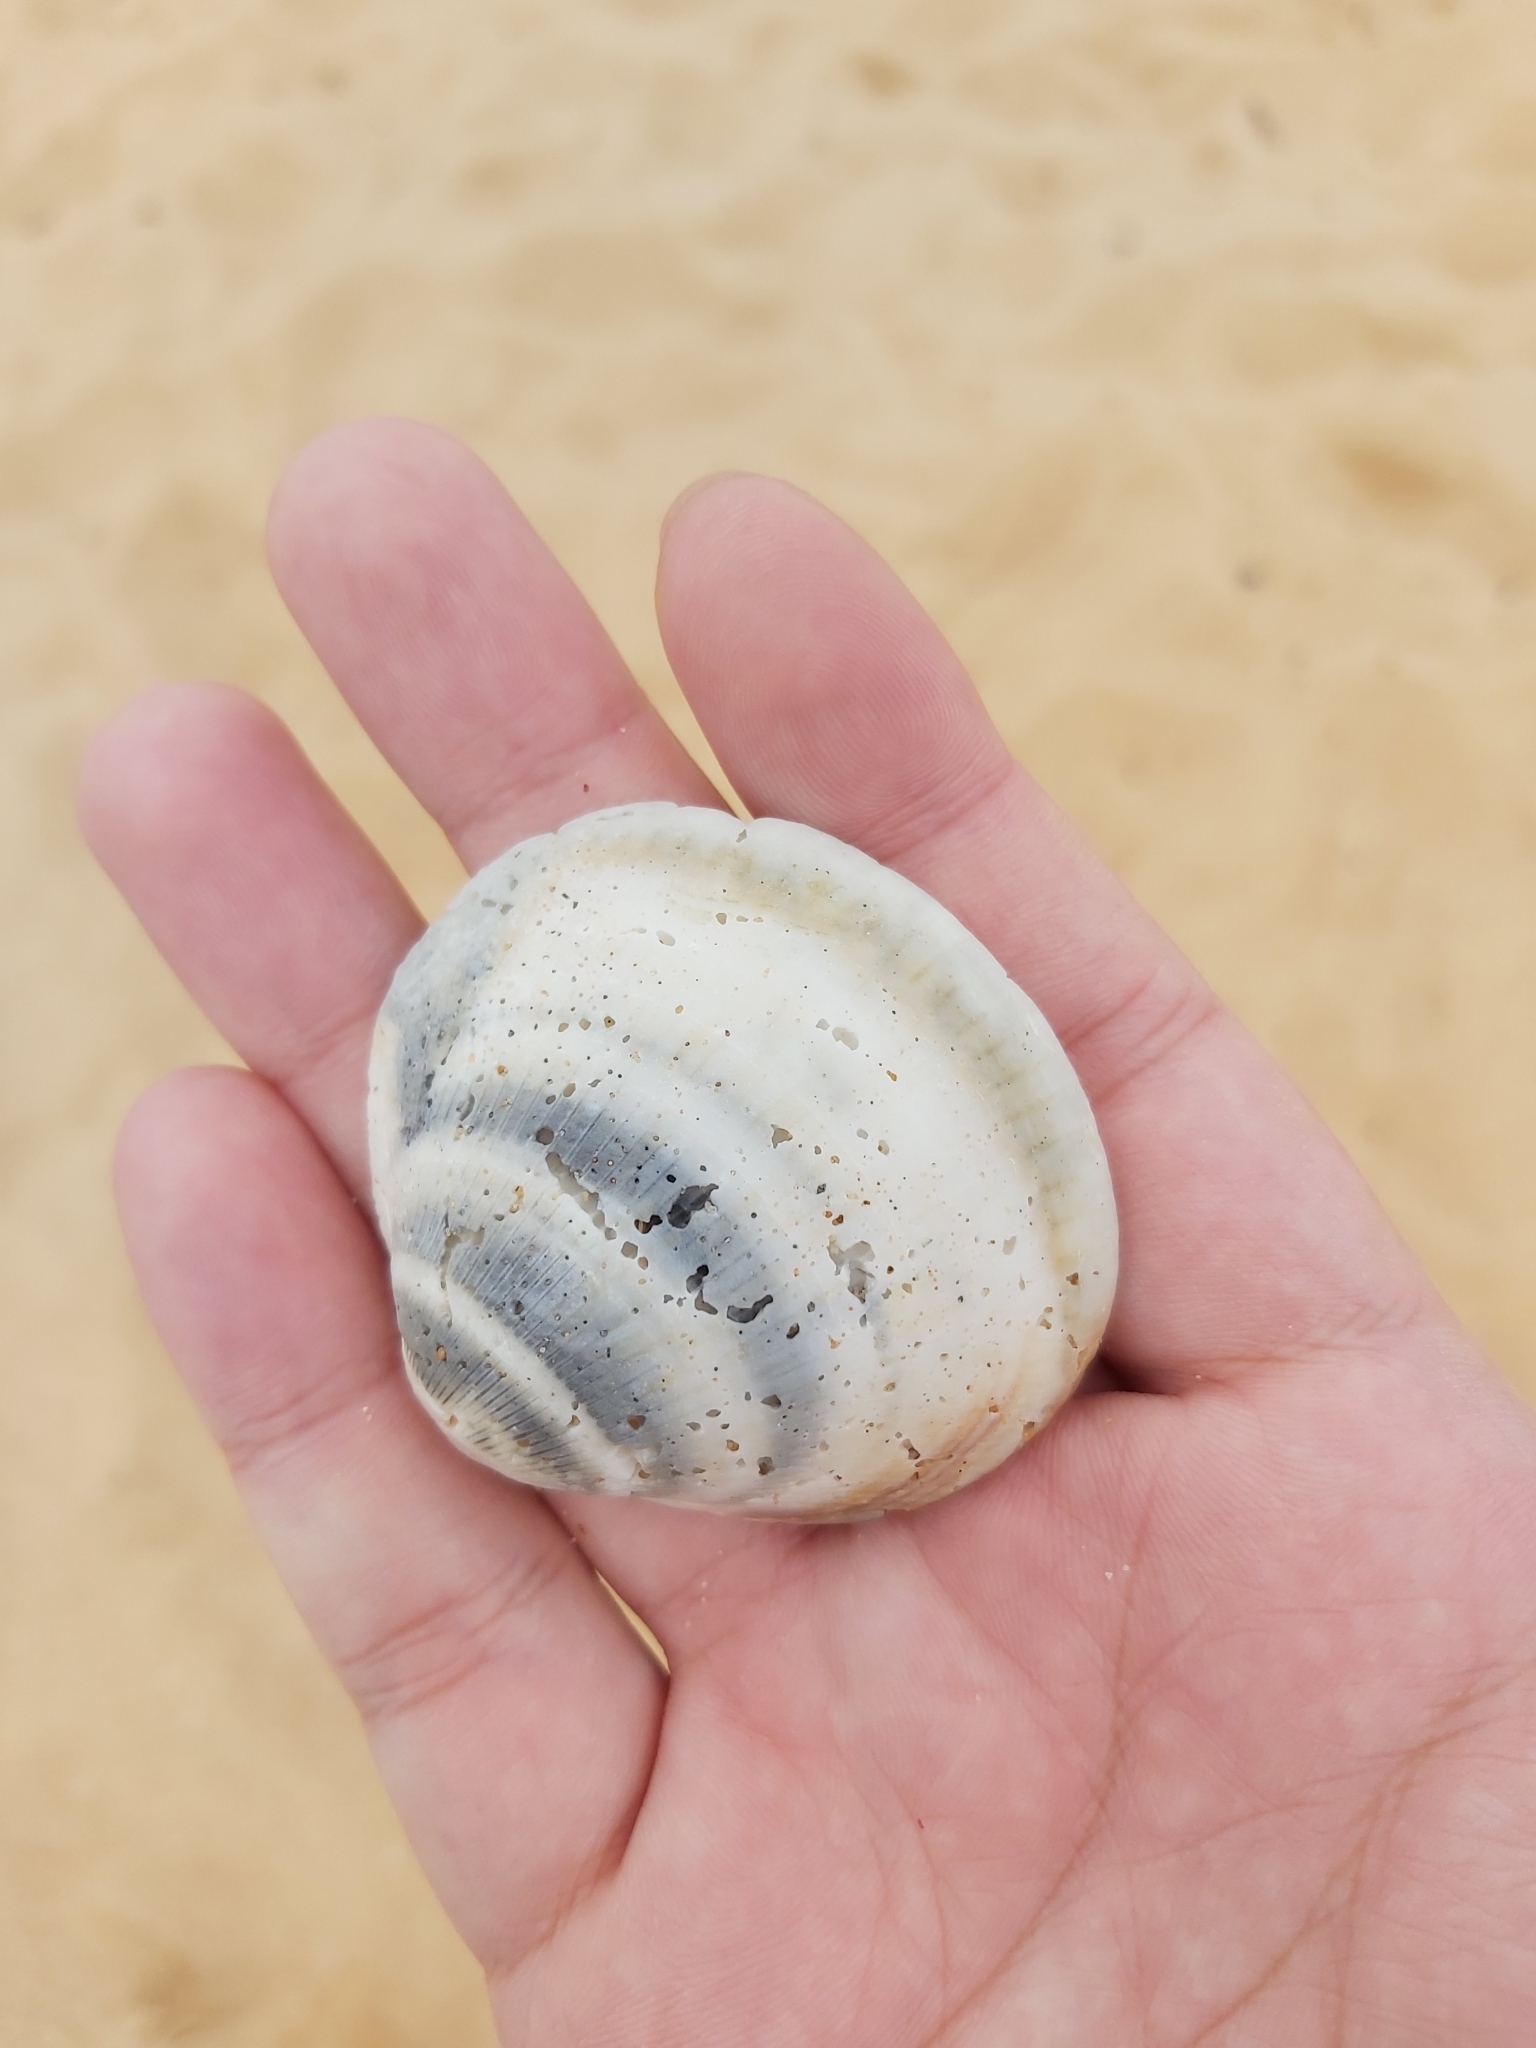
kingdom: Animalia
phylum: Mollusca
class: Bivalvia
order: Arcida
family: Glycymerididae
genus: Glycymeris
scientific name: Glycymeris grayana
